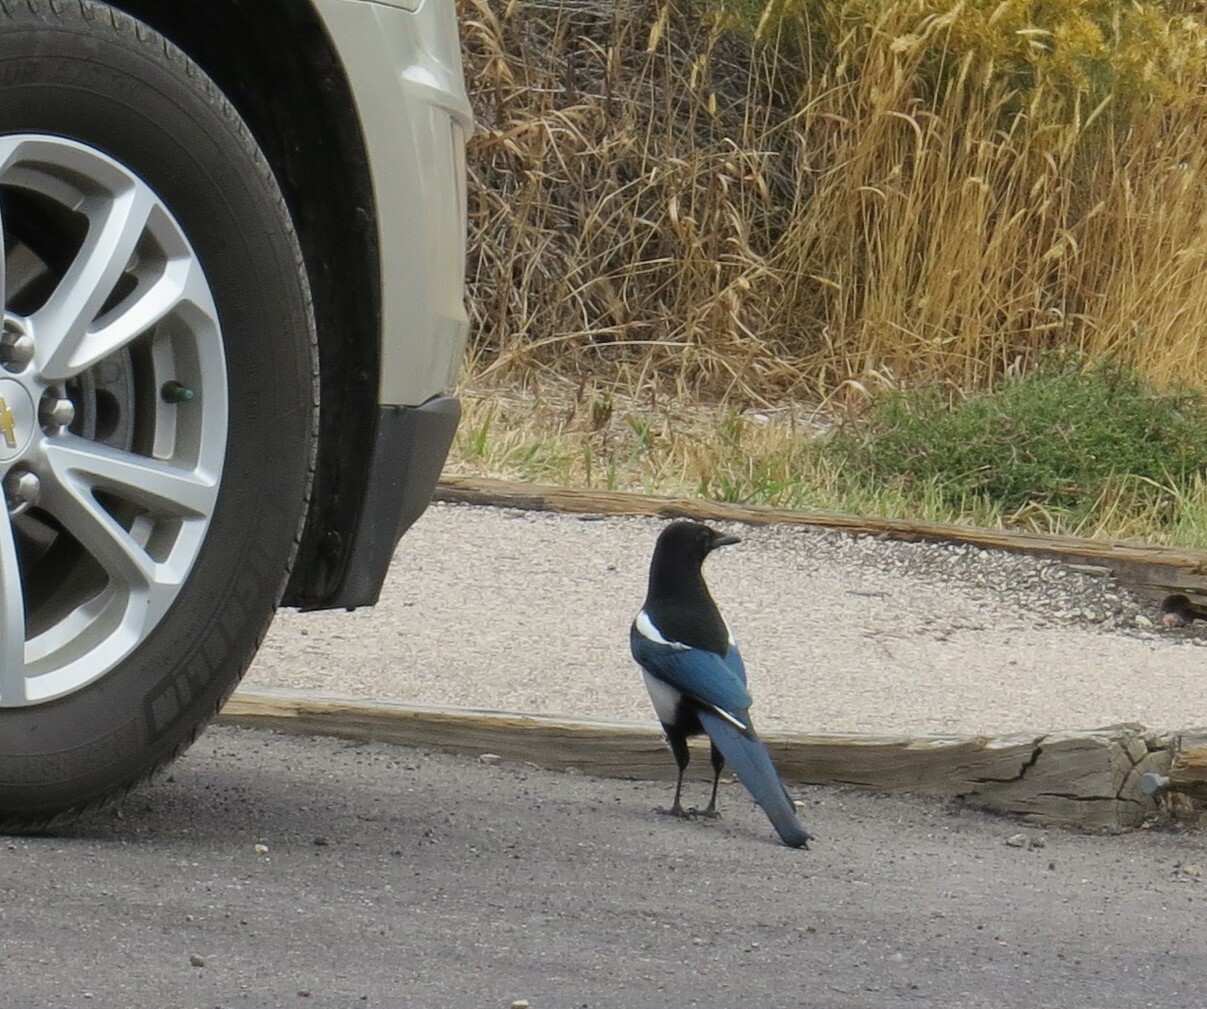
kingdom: Animalia
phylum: Chordata
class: Aves
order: Passeriformes
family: Corvidae
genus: Pica
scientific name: Pica hudsonia
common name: Black-billed magpie
